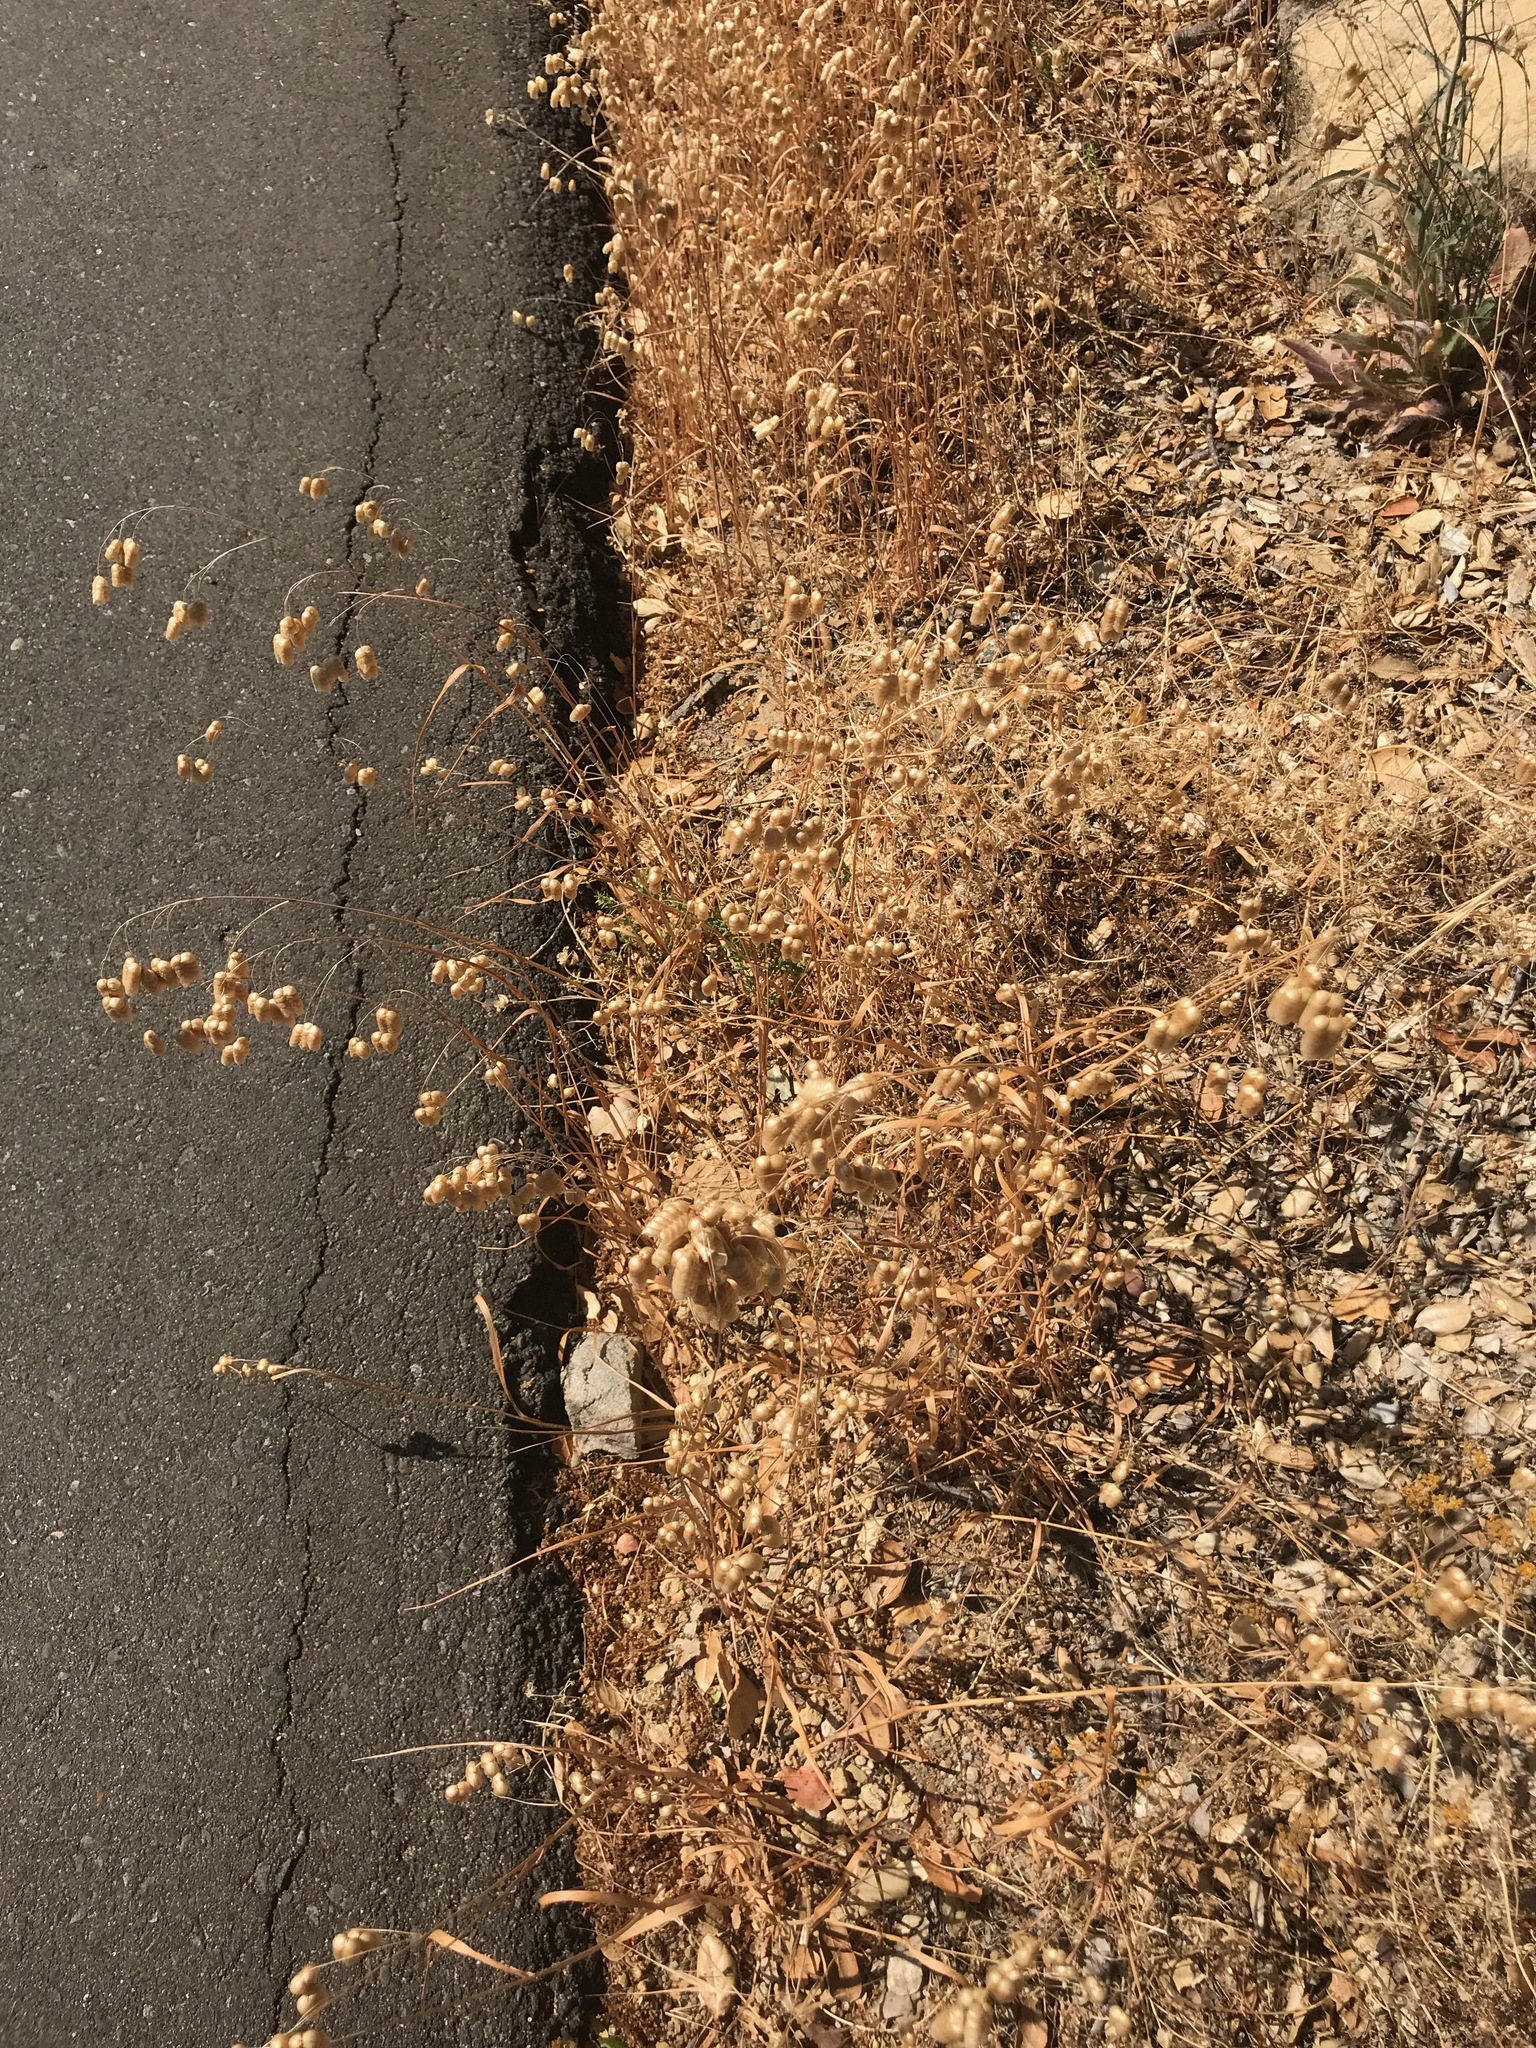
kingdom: Plantae
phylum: Tracheophyta
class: Liliopsida
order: Poales
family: Poaceae
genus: Briza
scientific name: Briza maxima
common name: Big quakinggrass
